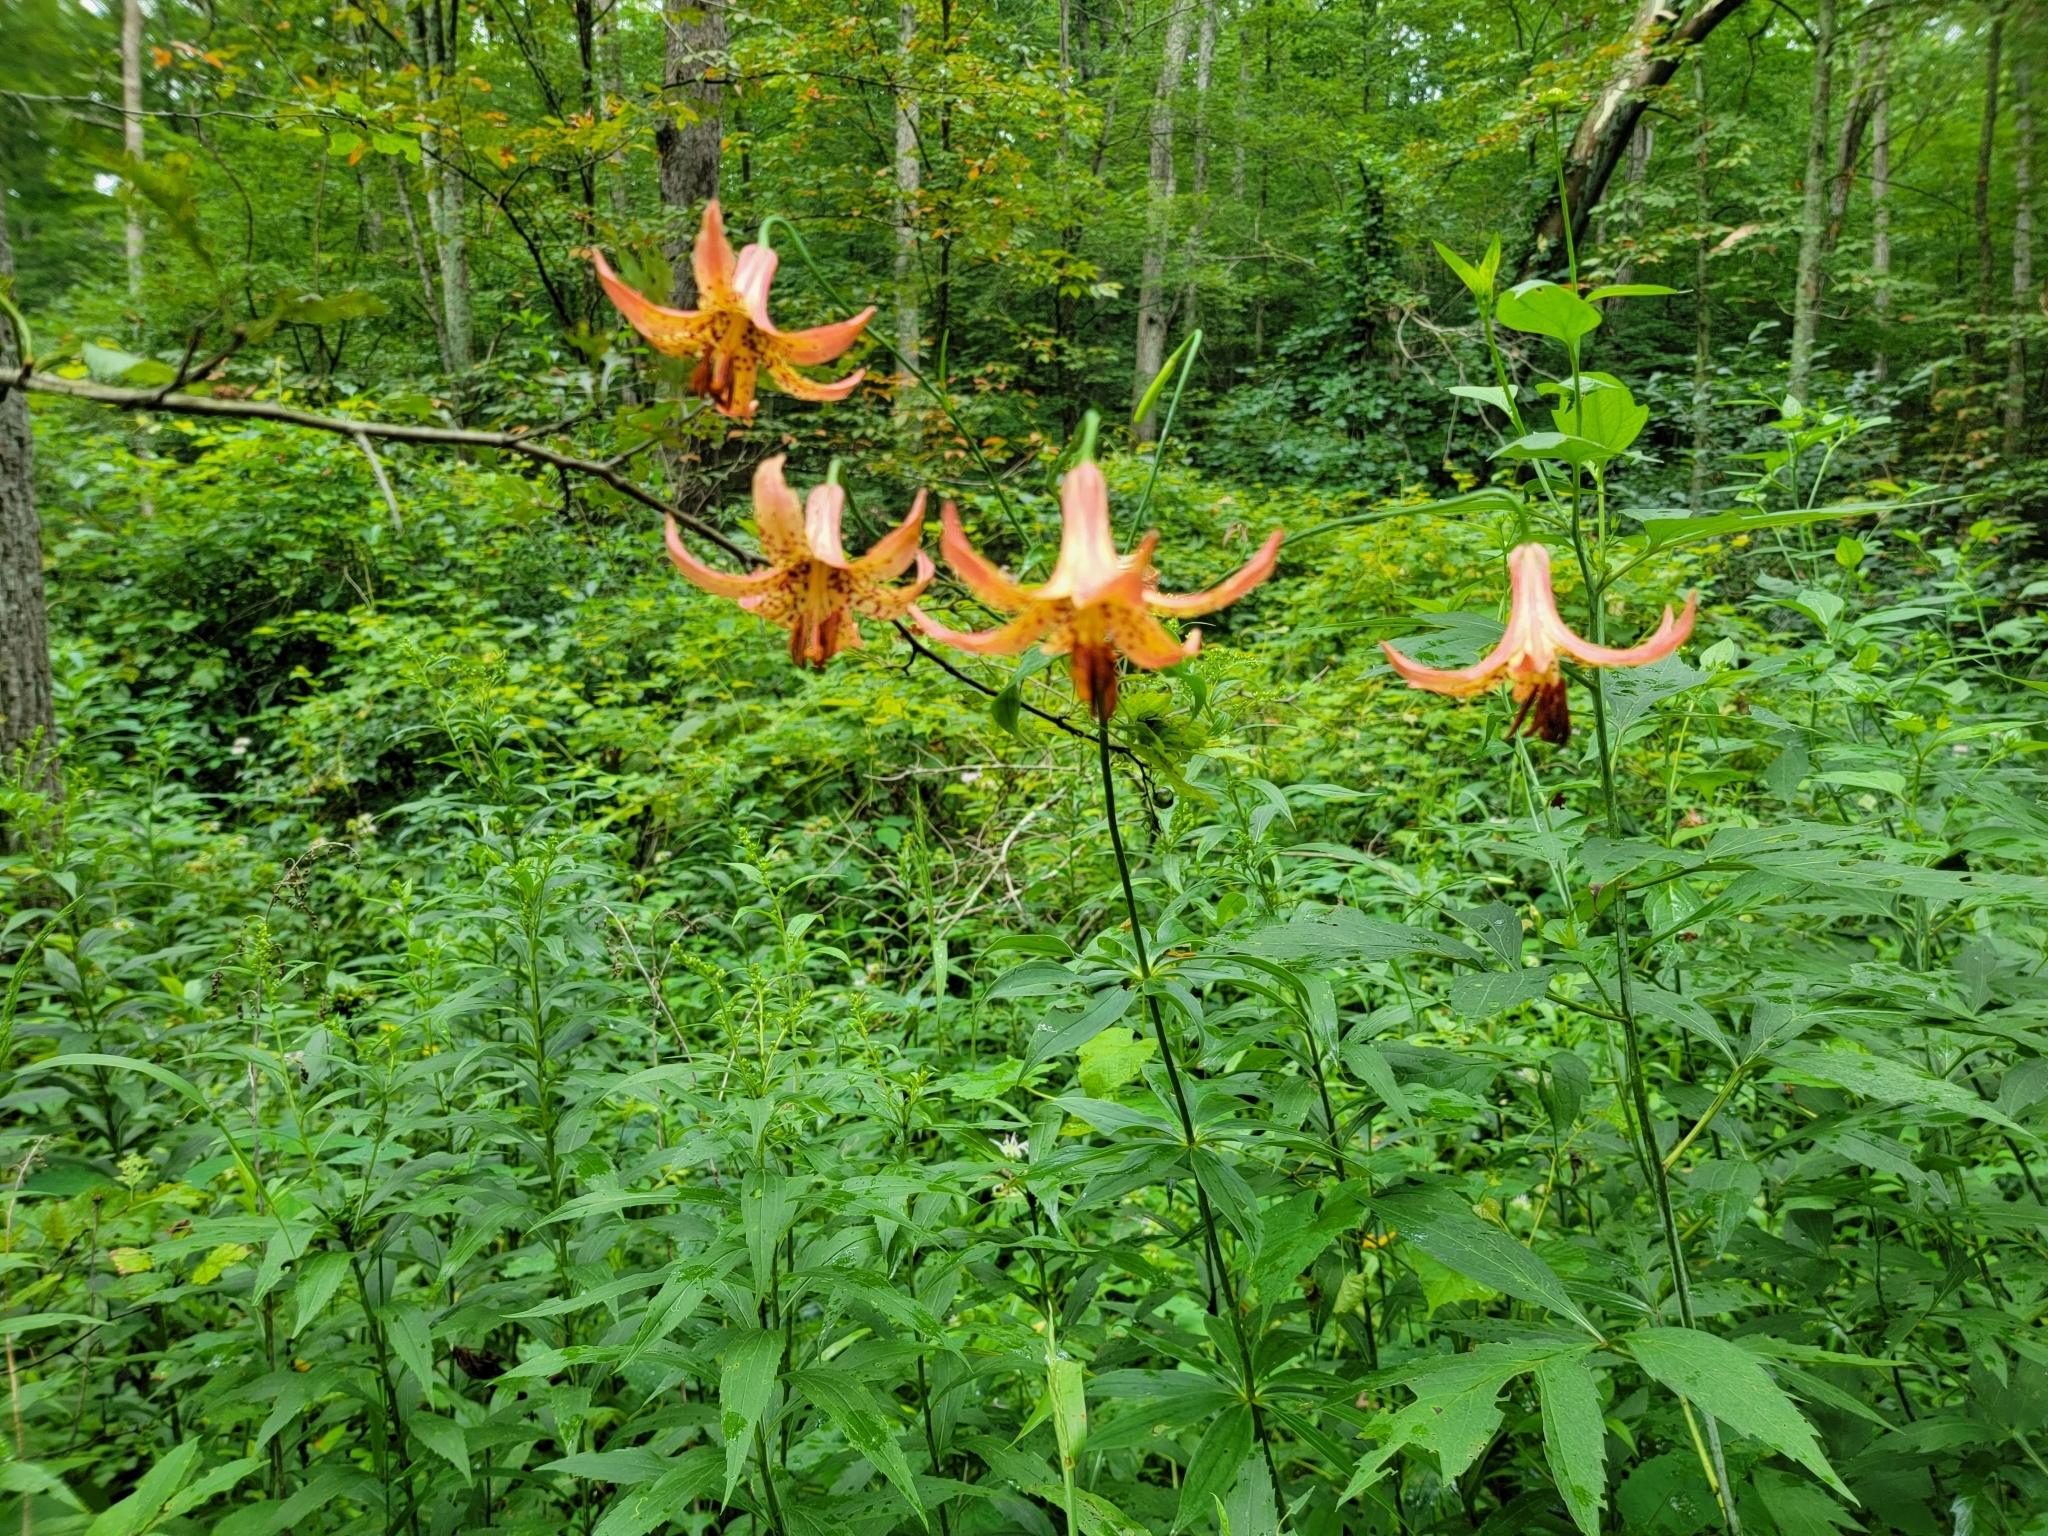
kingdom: Plantae
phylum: Tracheophyta
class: Liliopsida
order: Liliales
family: Liliaceae
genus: Lilium
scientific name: Lilium canadense
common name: Canada lily
